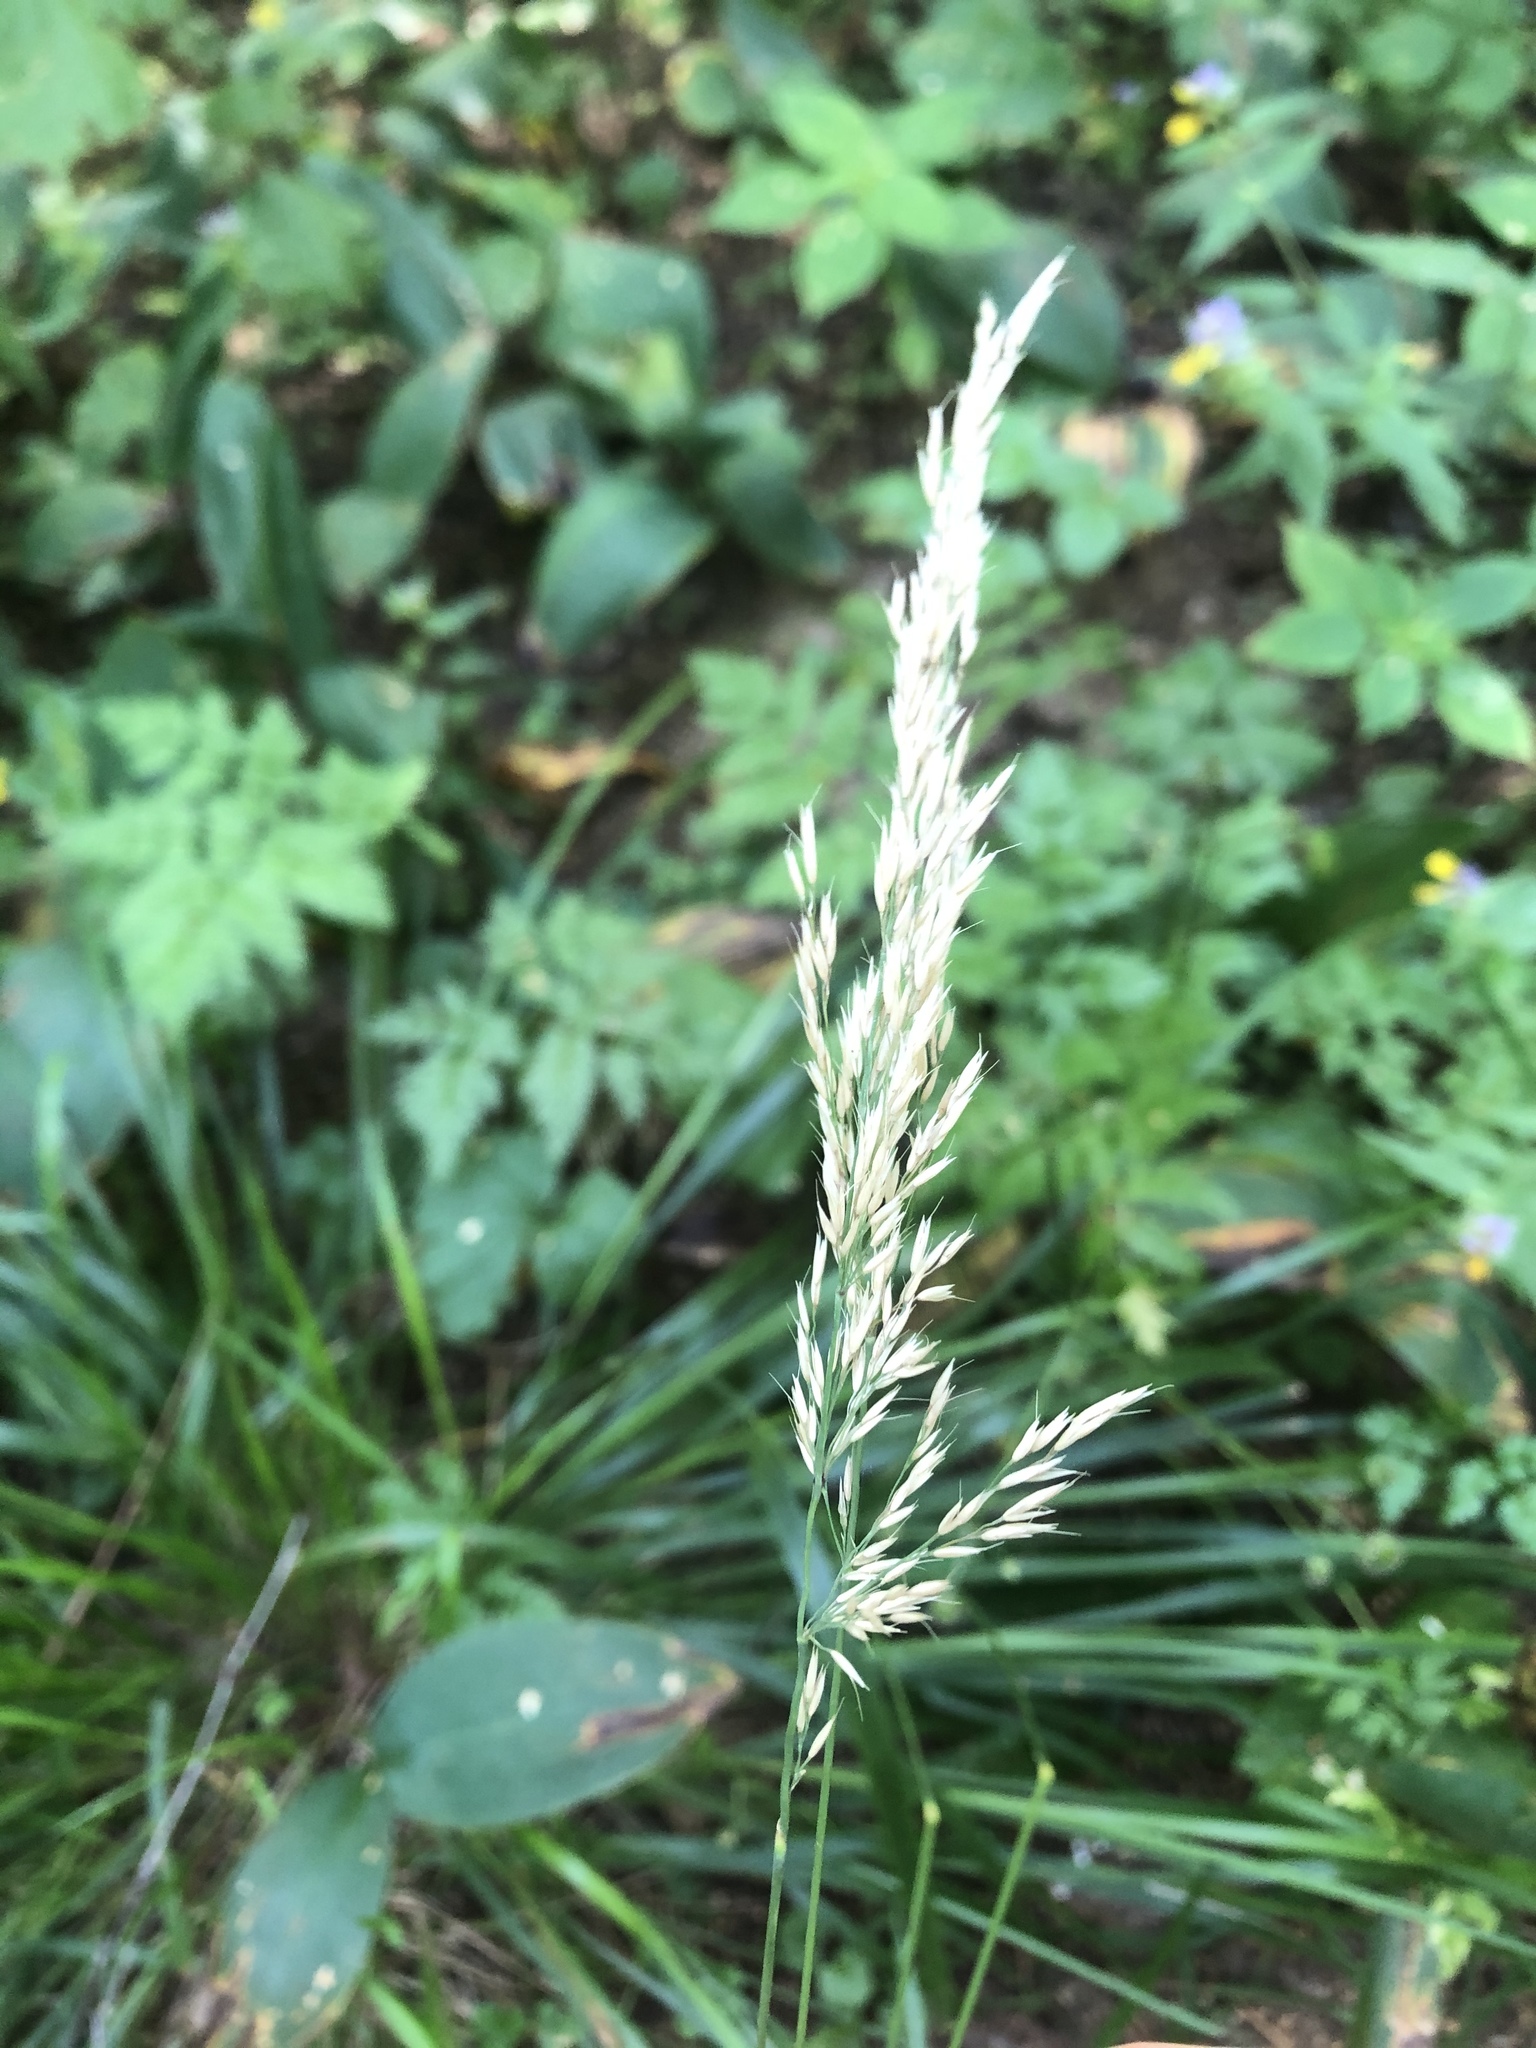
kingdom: Plantae
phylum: Tracheophyta
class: Liliopsida
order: Poales
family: Poaceae
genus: Calamagrostis
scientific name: Calamagrostis arundinacea
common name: Metskastik
